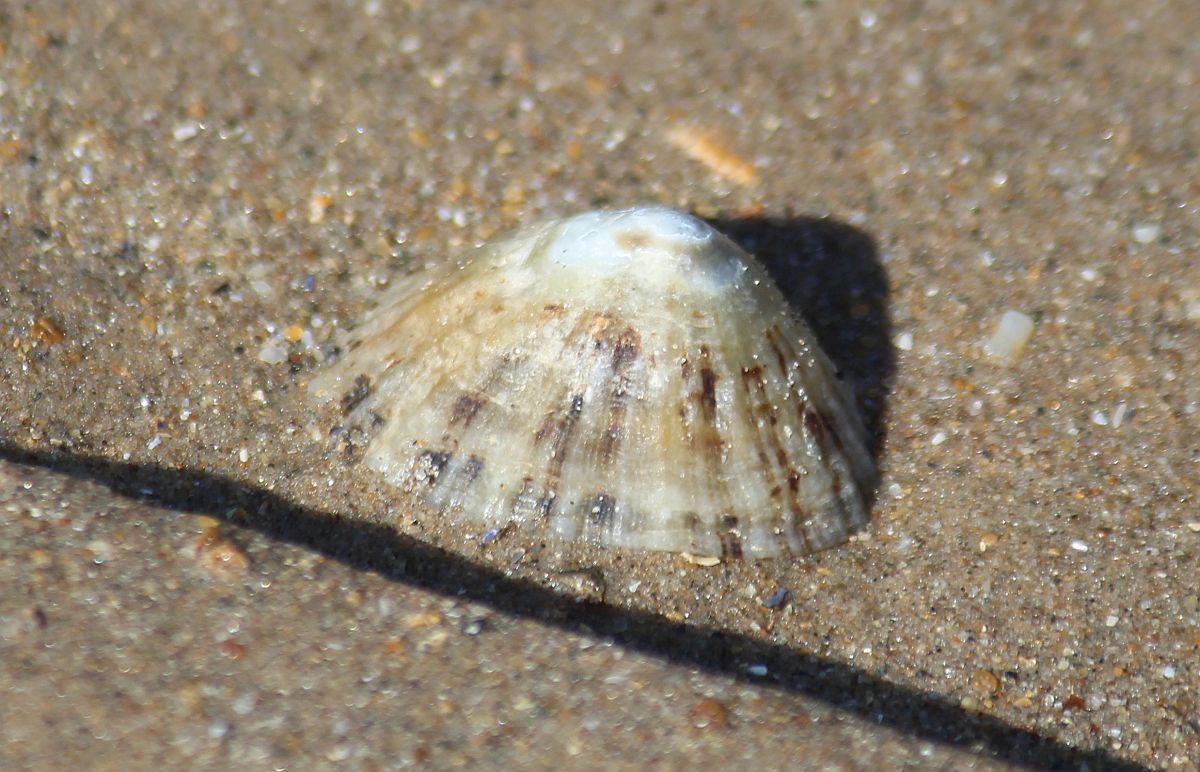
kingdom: Animalia
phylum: Mollusca
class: Gastropoda
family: Patellidae
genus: Patella
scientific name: Patella vulgata
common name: Common limpet
